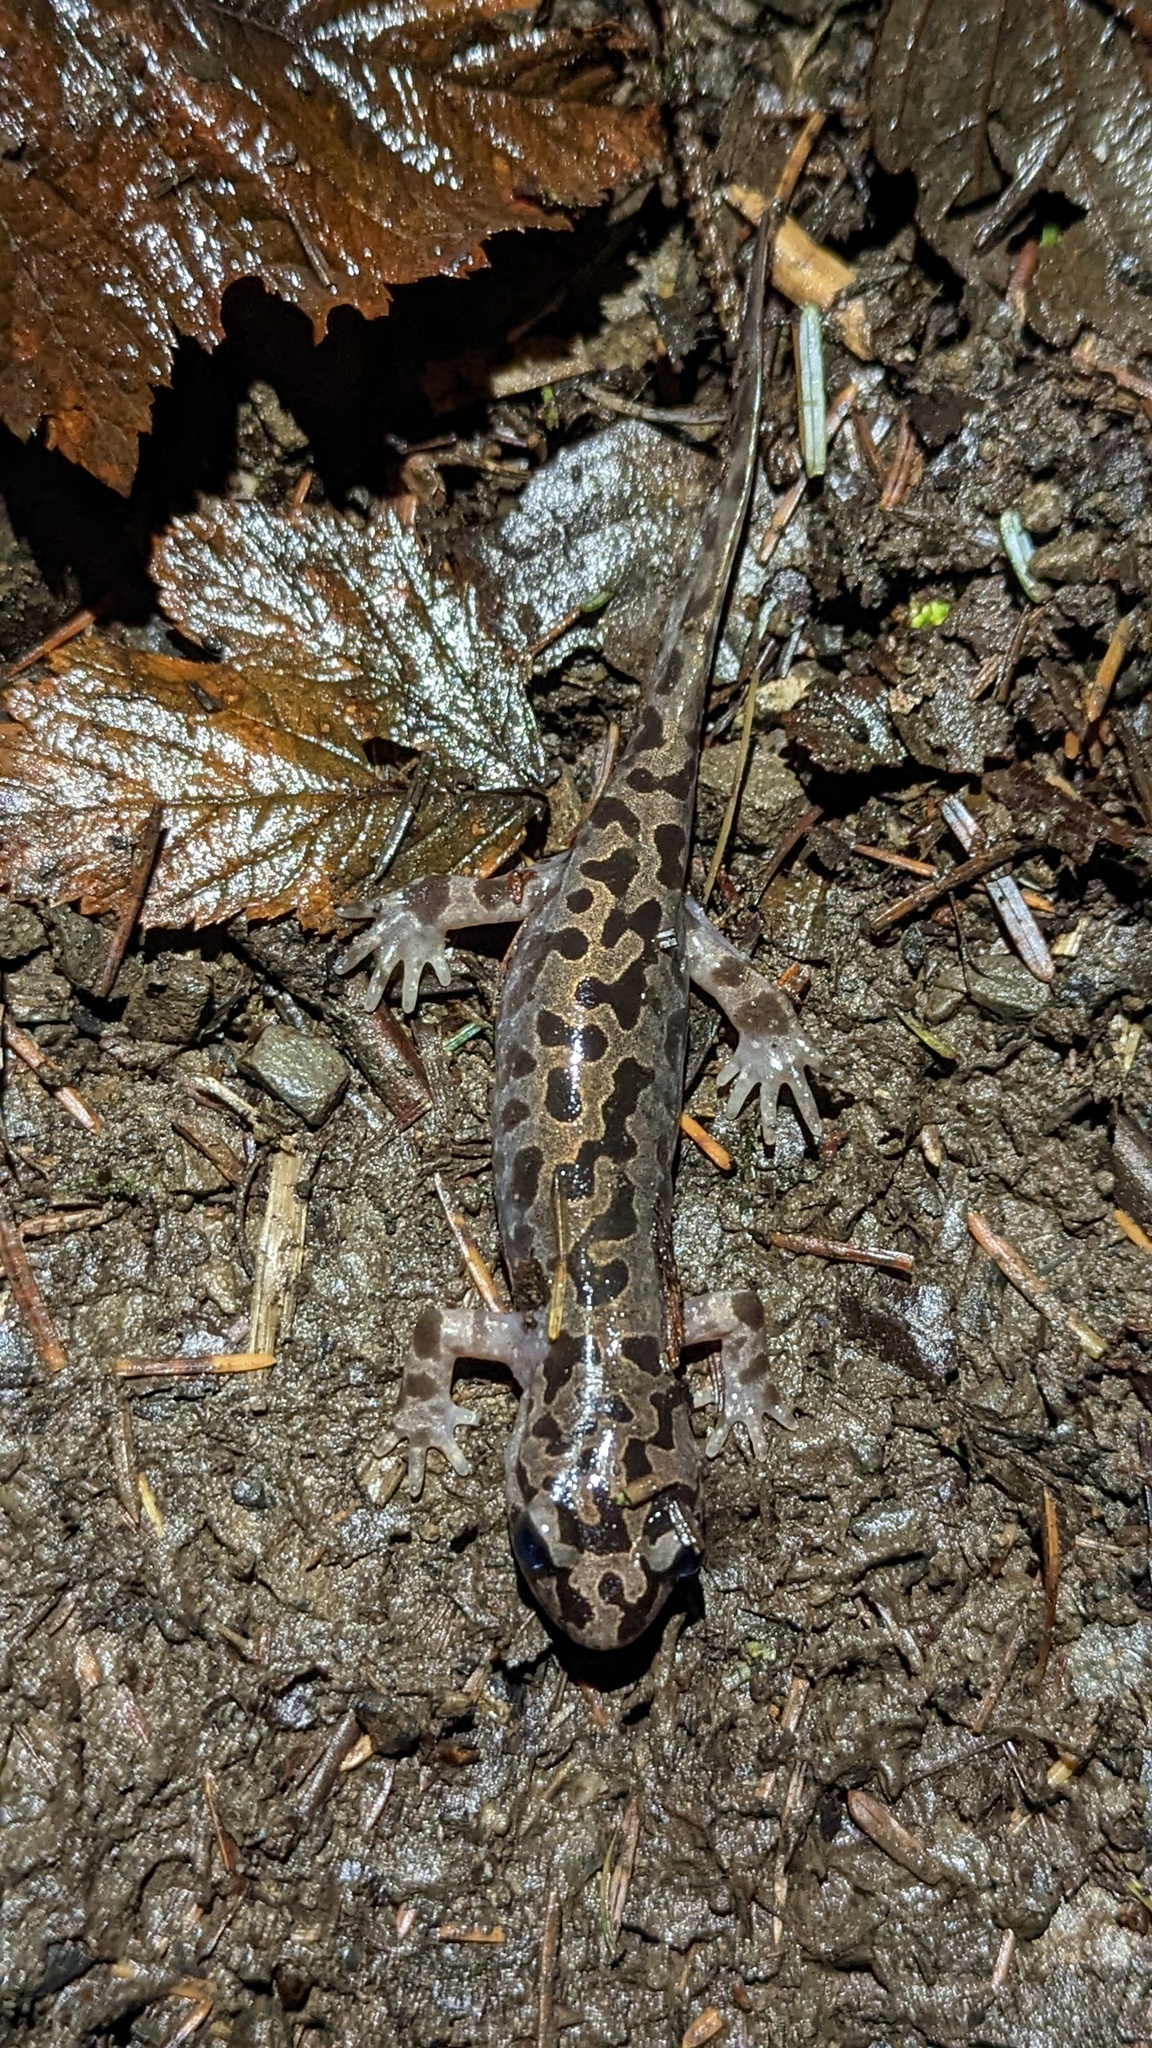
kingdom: Animalia
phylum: Chordata
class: Amphibia
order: Caudata
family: Ambystomatidae
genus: Dicamptodon
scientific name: Dicamptodon tenebrosus
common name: Coastal giant salamander
